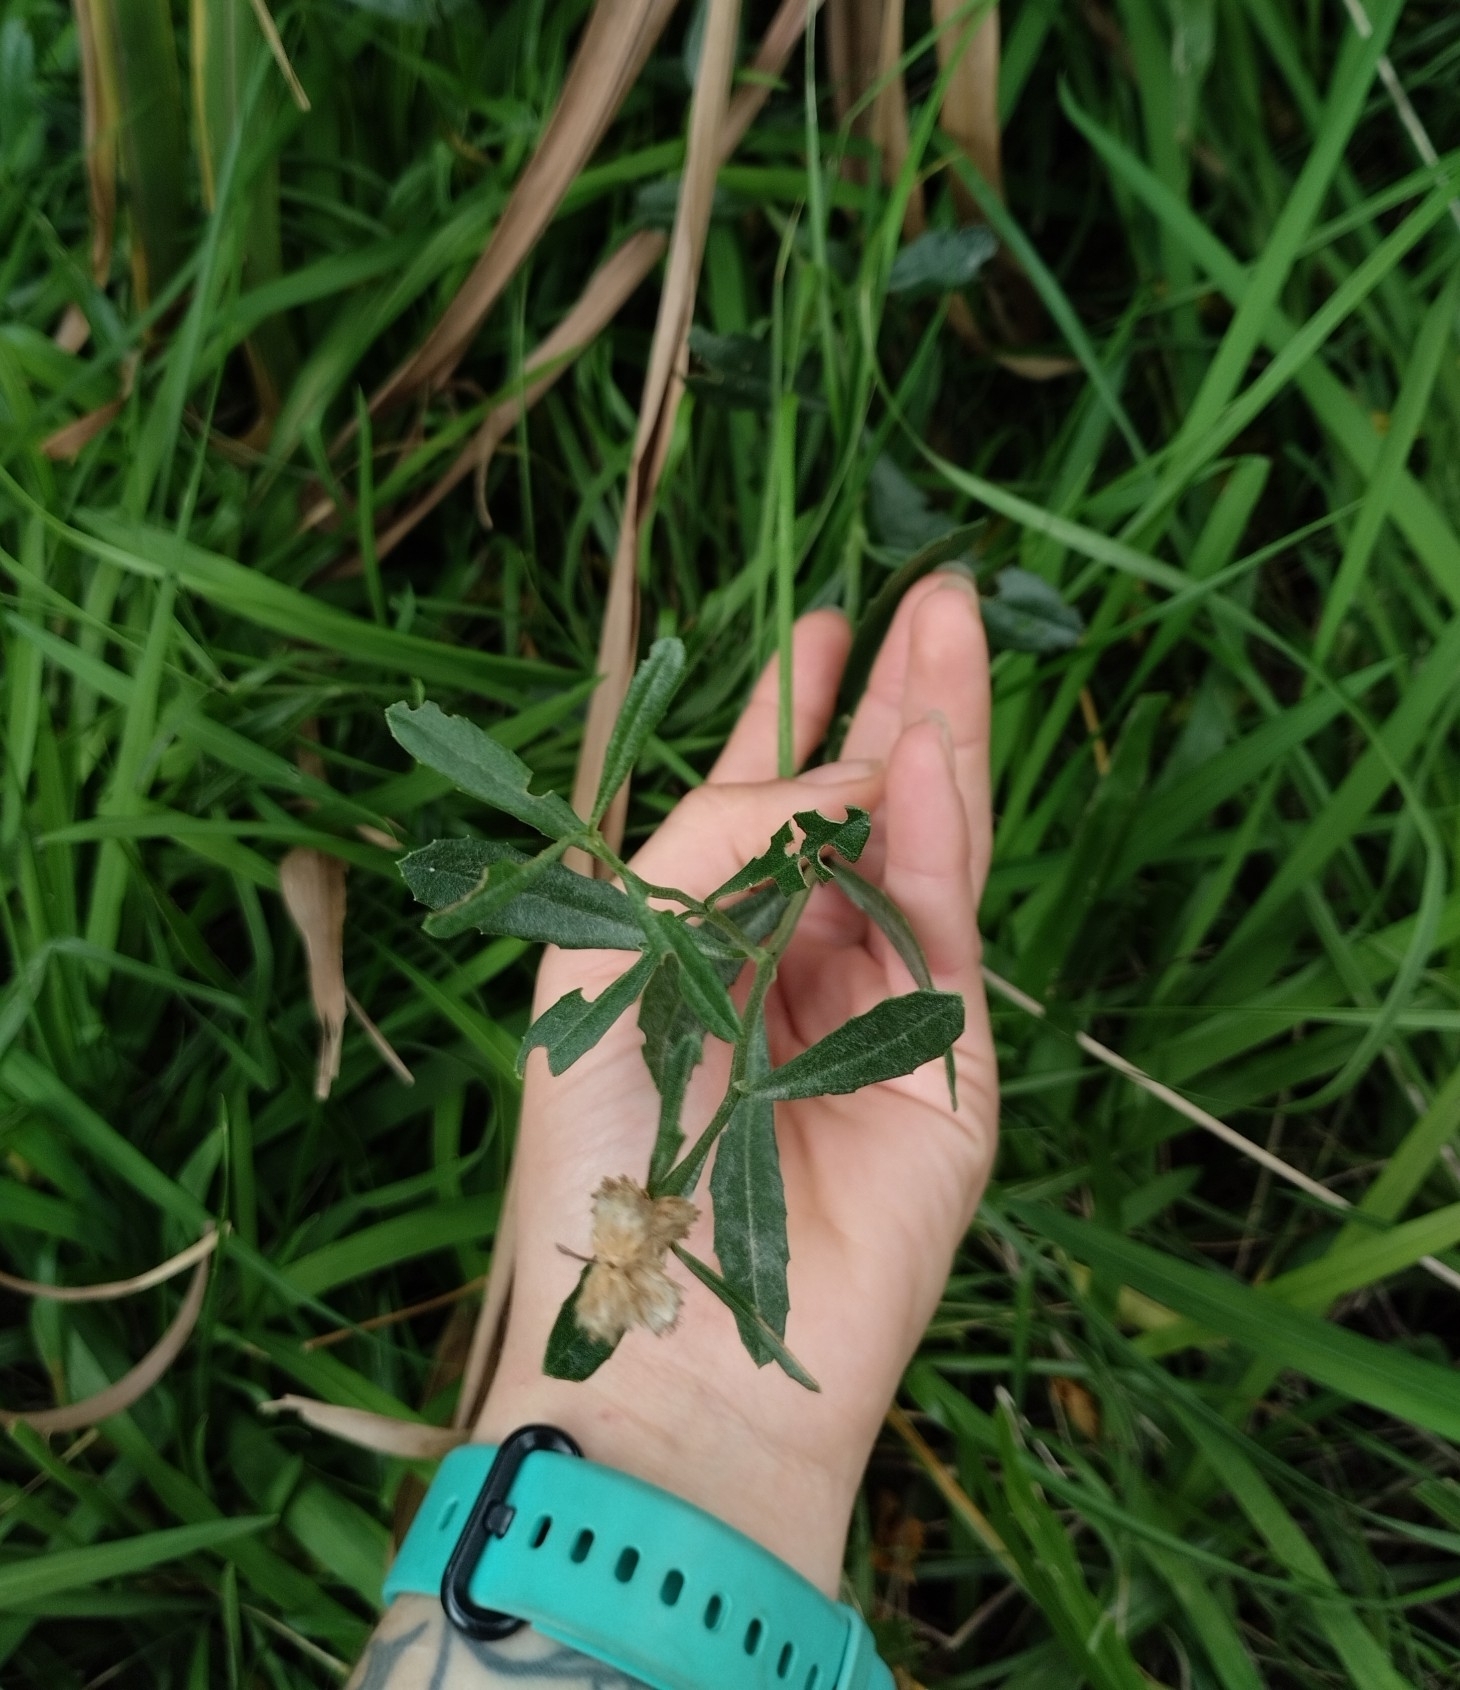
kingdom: Plantae
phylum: Tracheophyta
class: Magnoliopsida
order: Asterales
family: Asteraceae
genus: Baccharis
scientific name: Baccharis spicata
